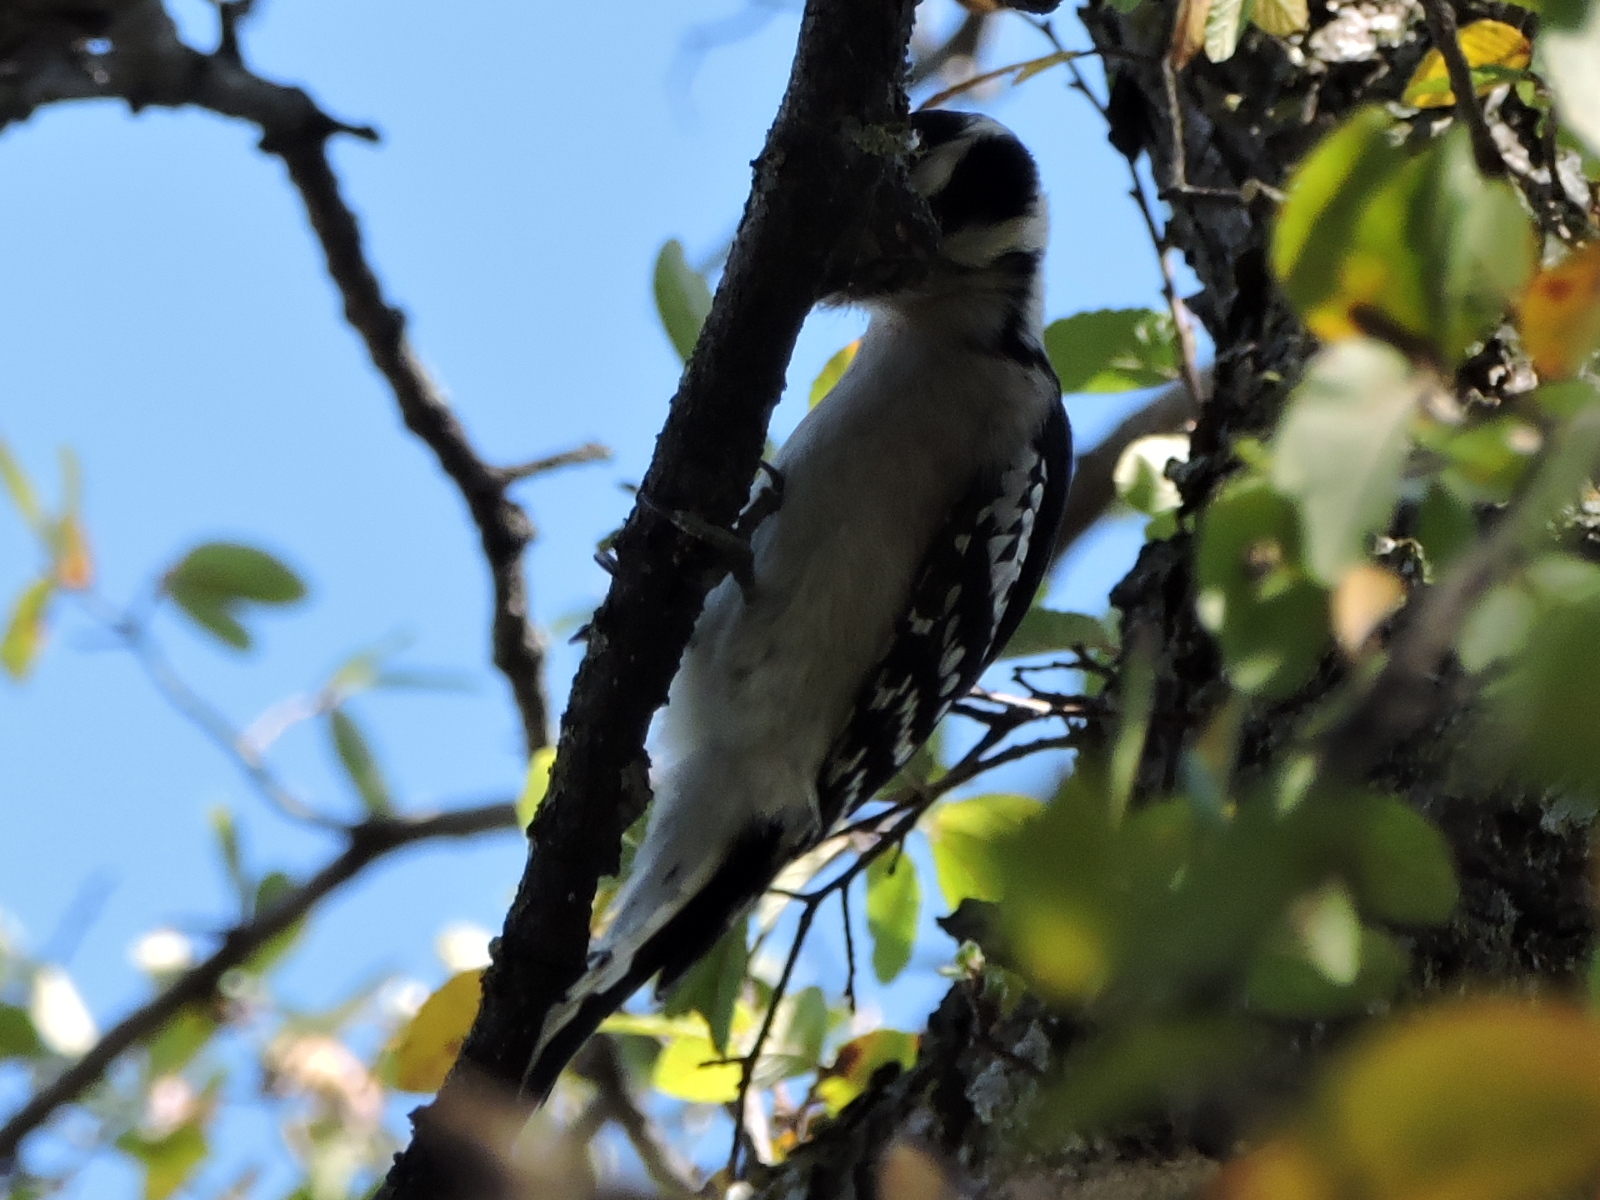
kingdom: Animalia
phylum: Chordata
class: Aves
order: Piciformes
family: Picidae
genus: Dryobates
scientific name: Dryobates pubescens
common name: Downy woodpecker
